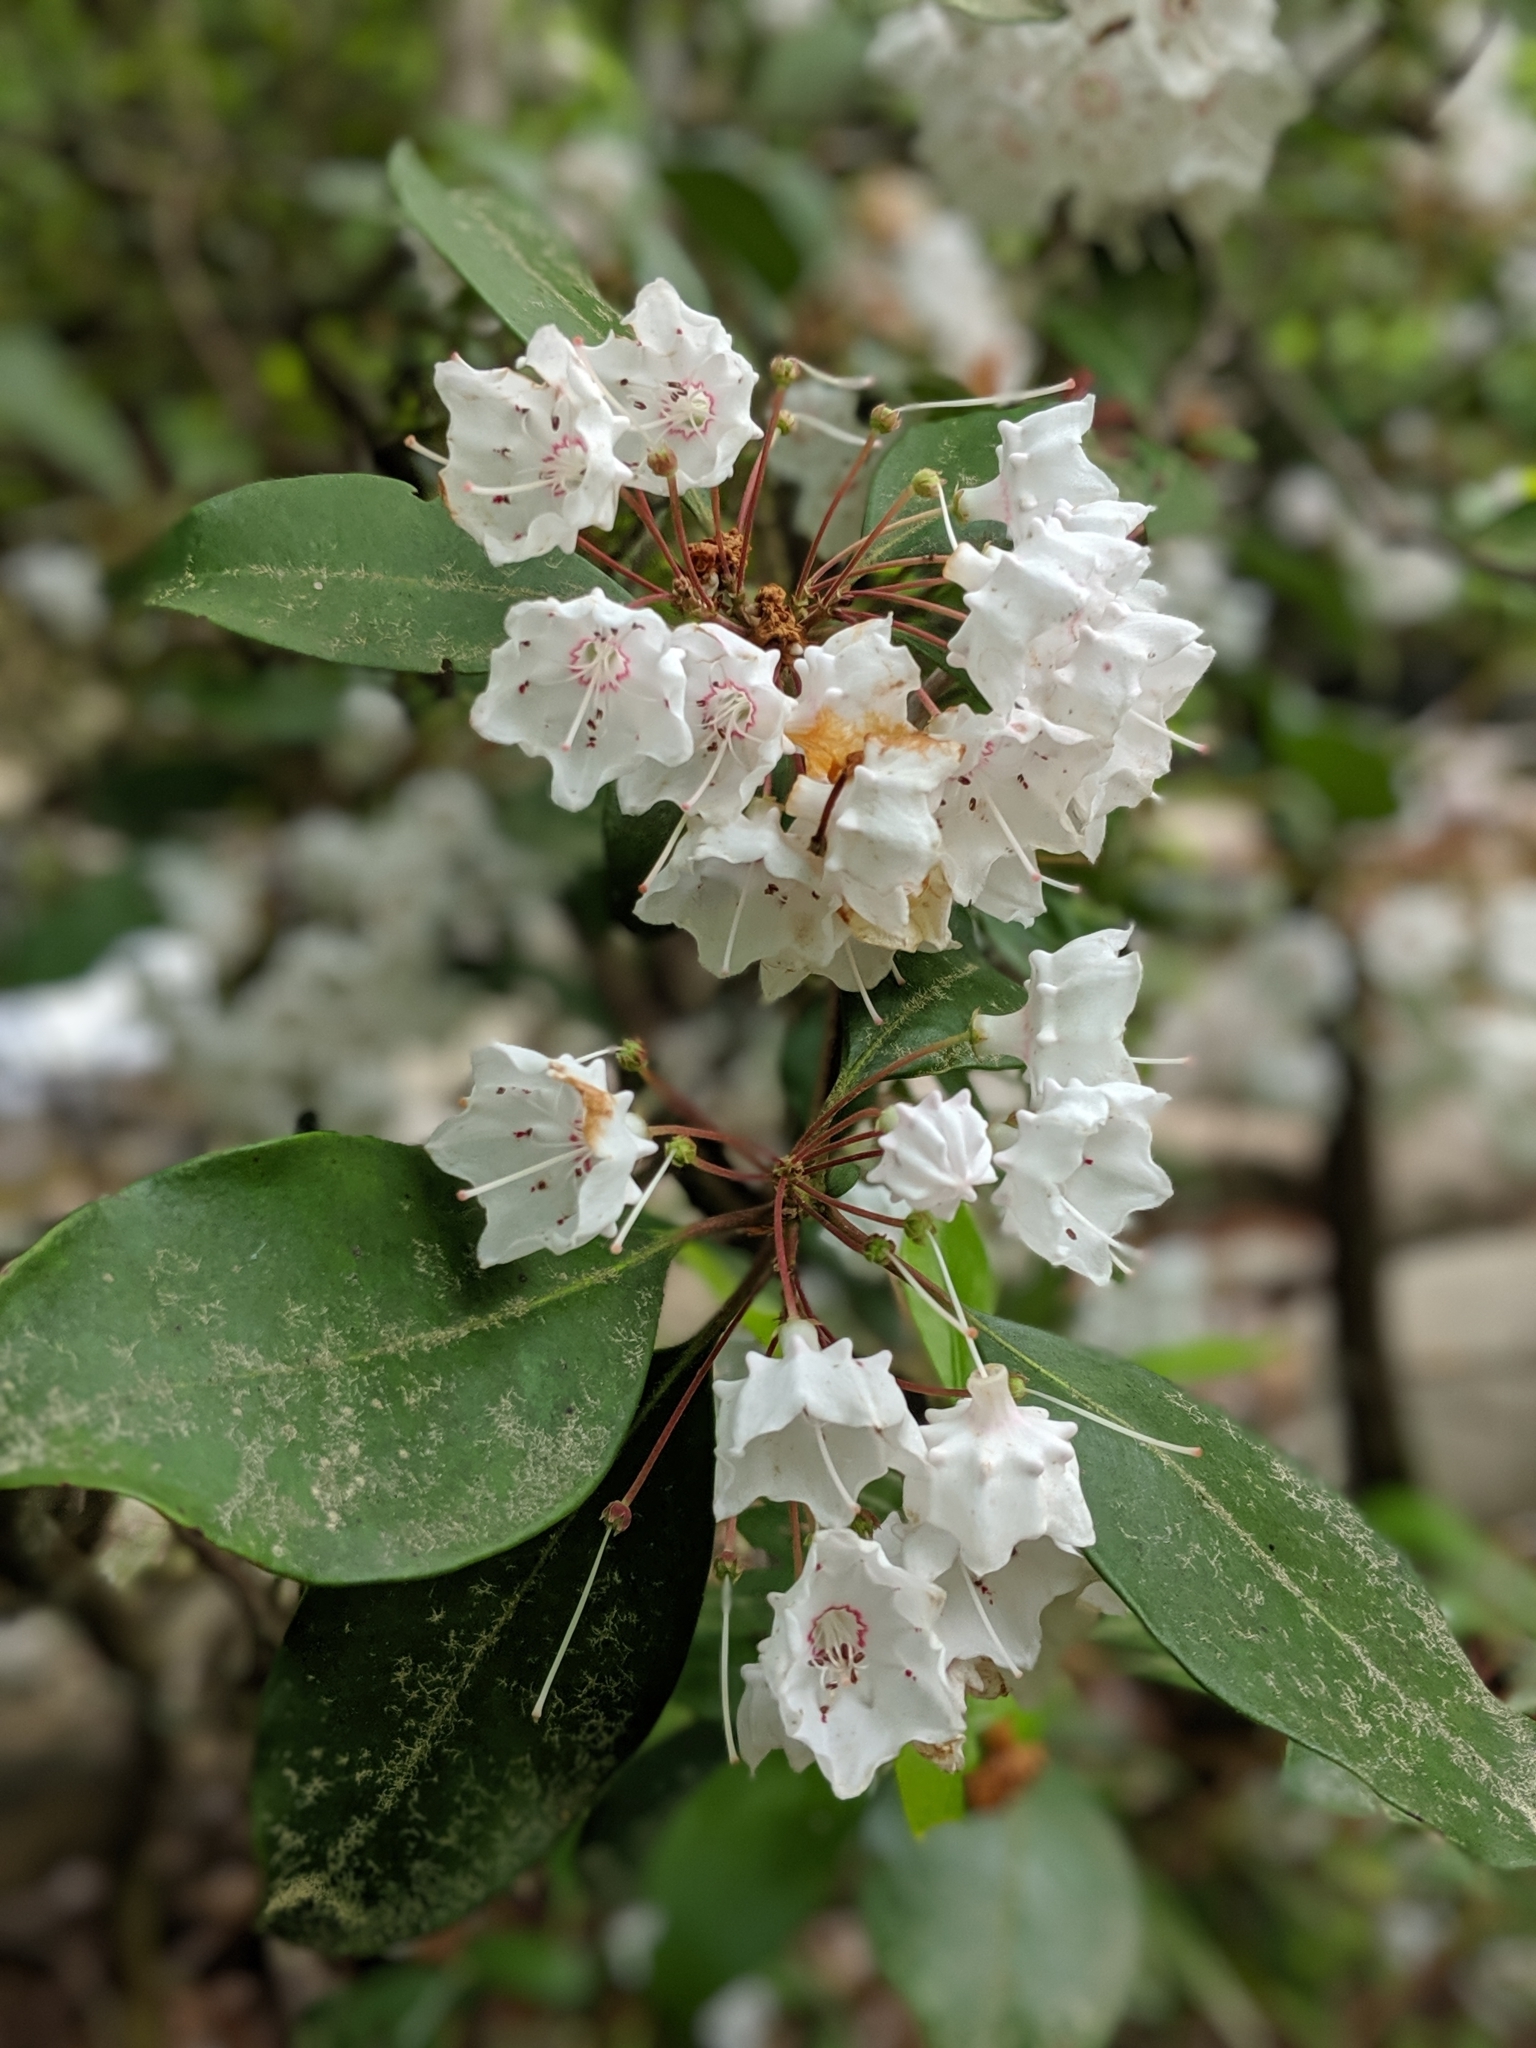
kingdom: Plantae
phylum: Tracheophyta
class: Magnoliopsida
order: Ericales
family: Ericaceae
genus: Kalmia
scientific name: Kalmia latifolia
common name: Mountain-laurel
